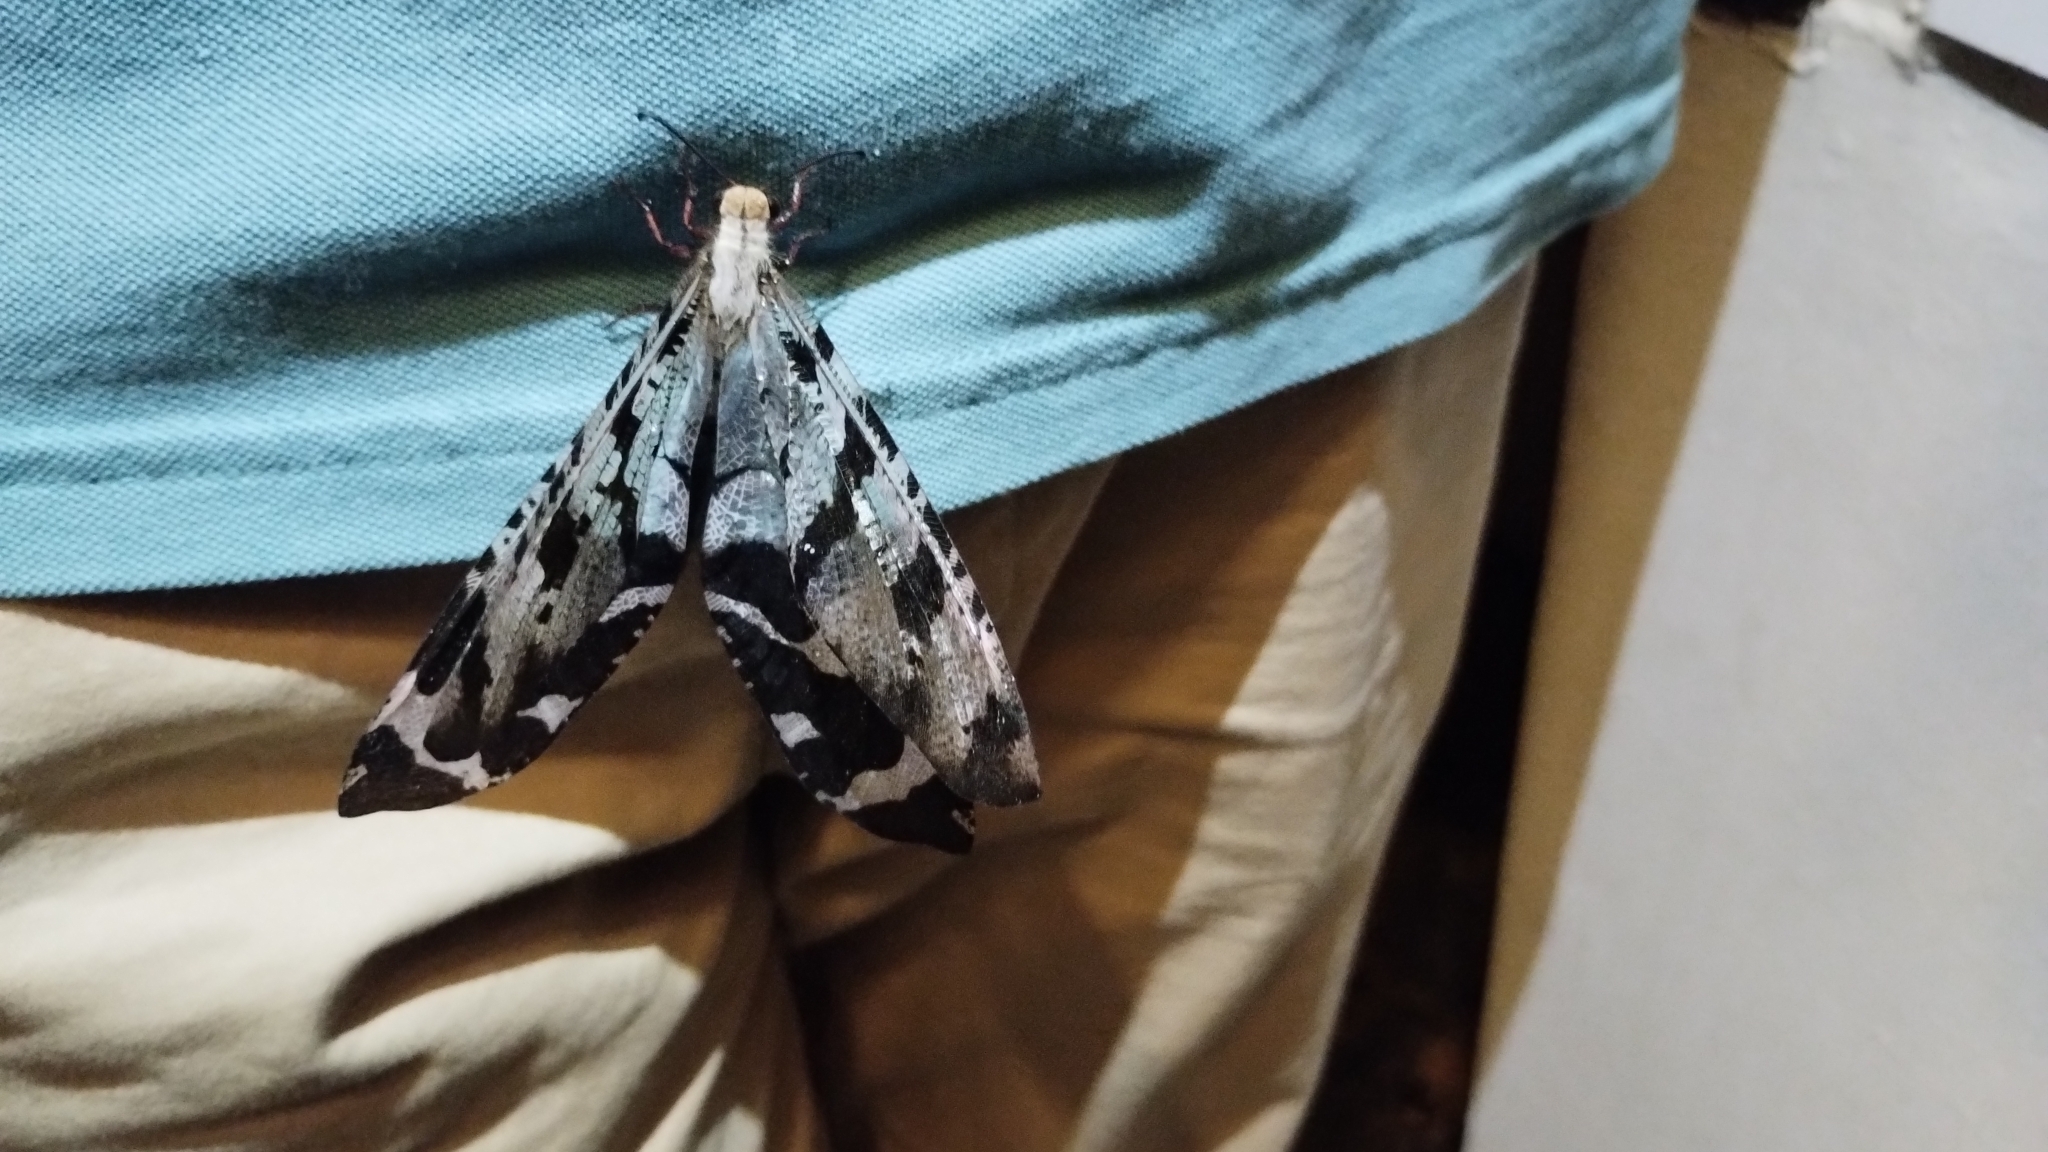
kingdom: Animalia
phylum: Arthropoda
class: Insecta
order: Neuroptera
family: Myrmeleontidae
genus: Lachlathetes
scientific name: Lachlathetes moestus
